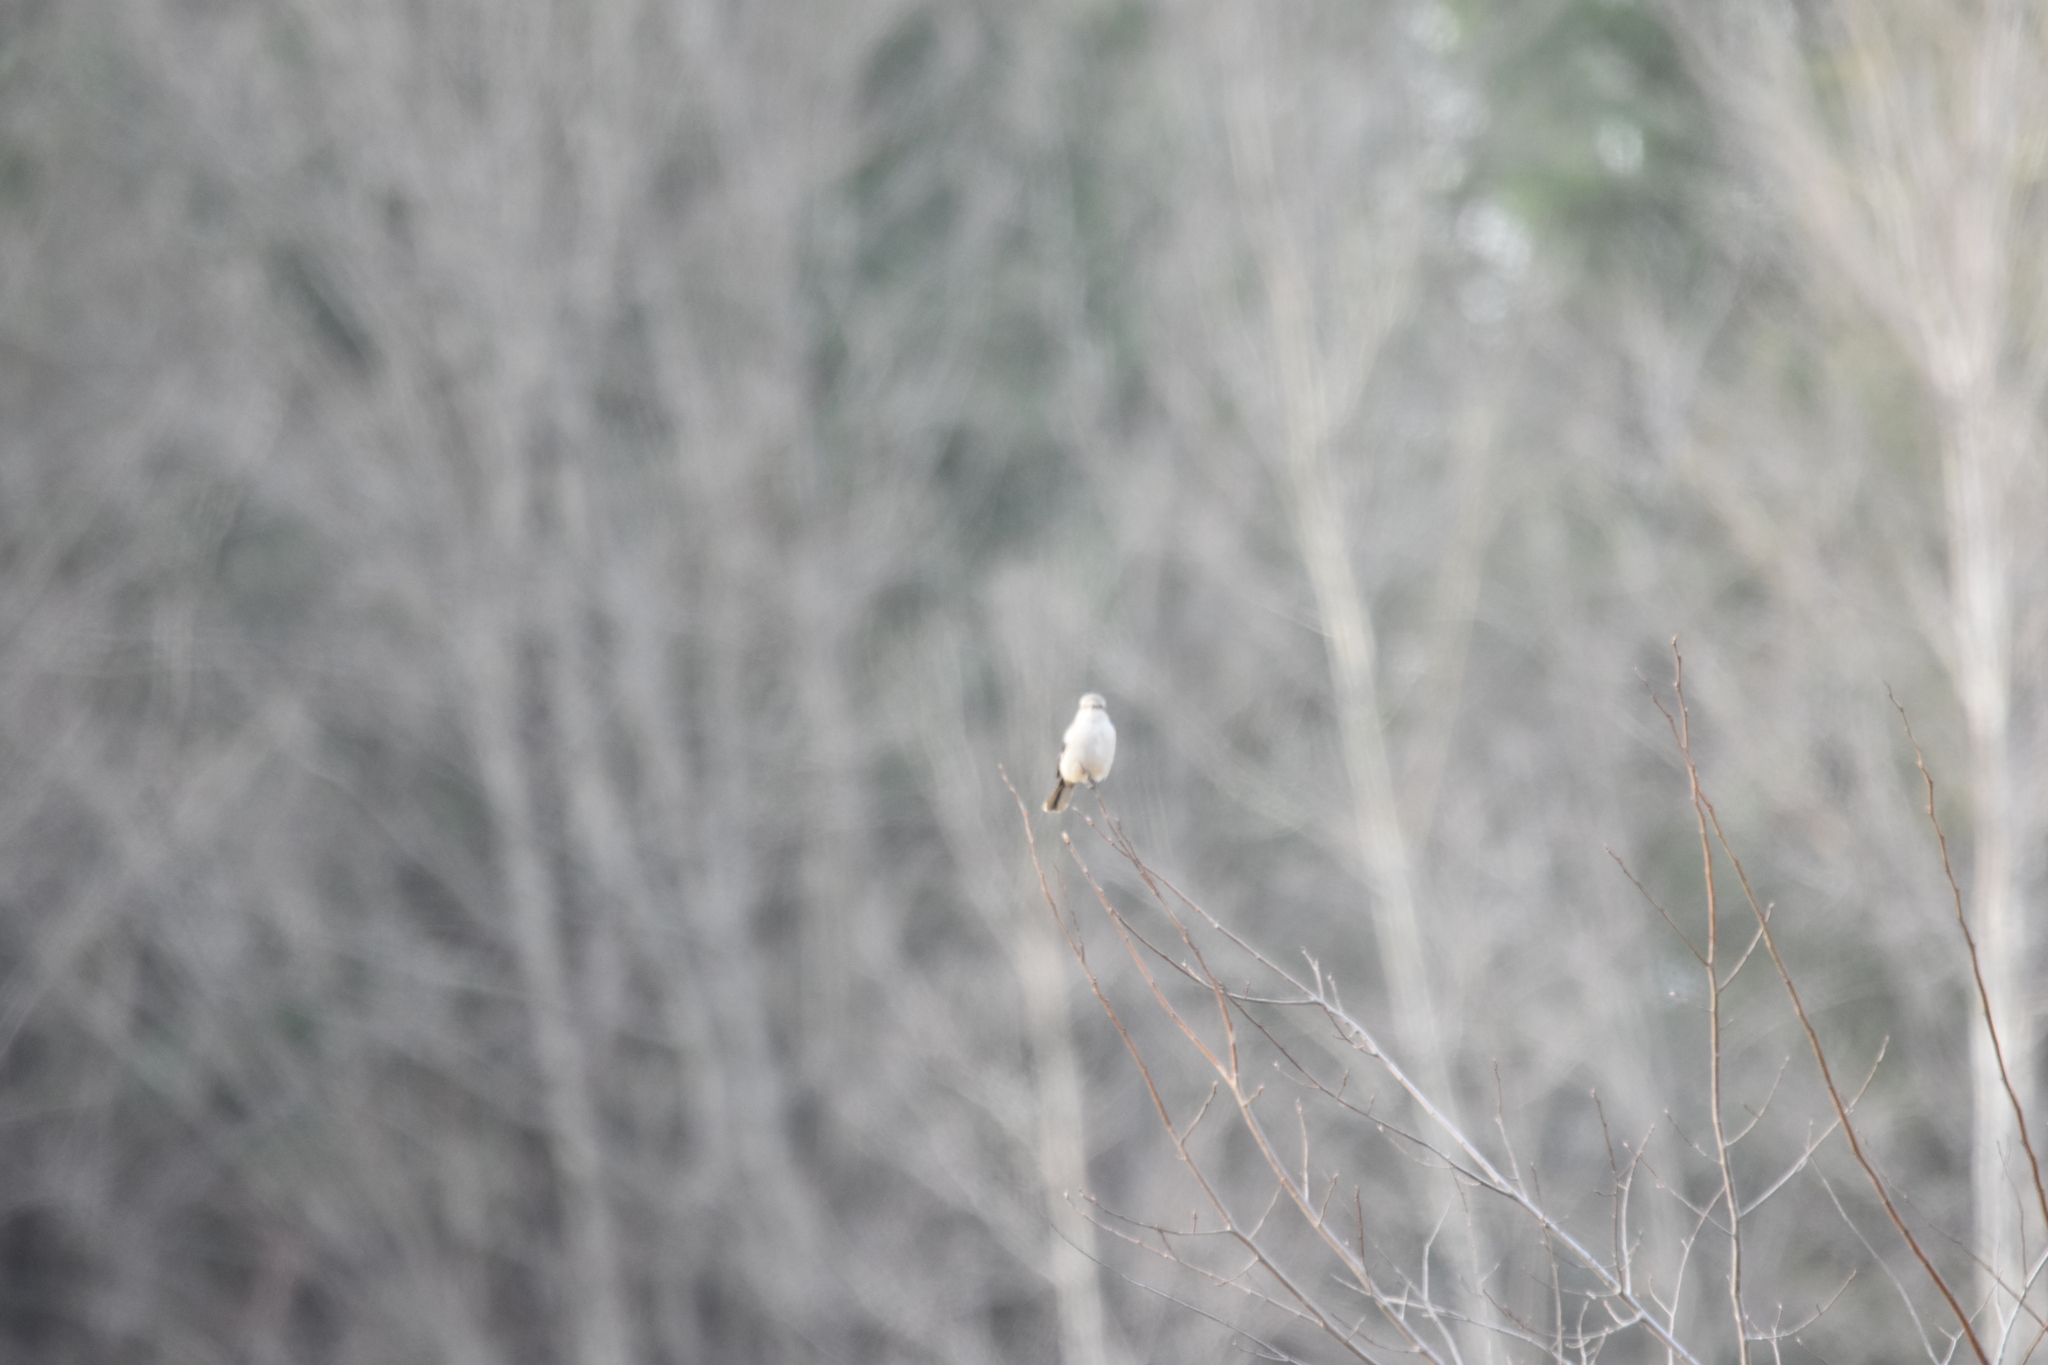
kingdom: Animalia
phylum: Chordata
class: Aves
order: Passeriformes
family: Laniidae
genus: Lanius
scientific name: Lanius borealis
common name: Northern shrike
